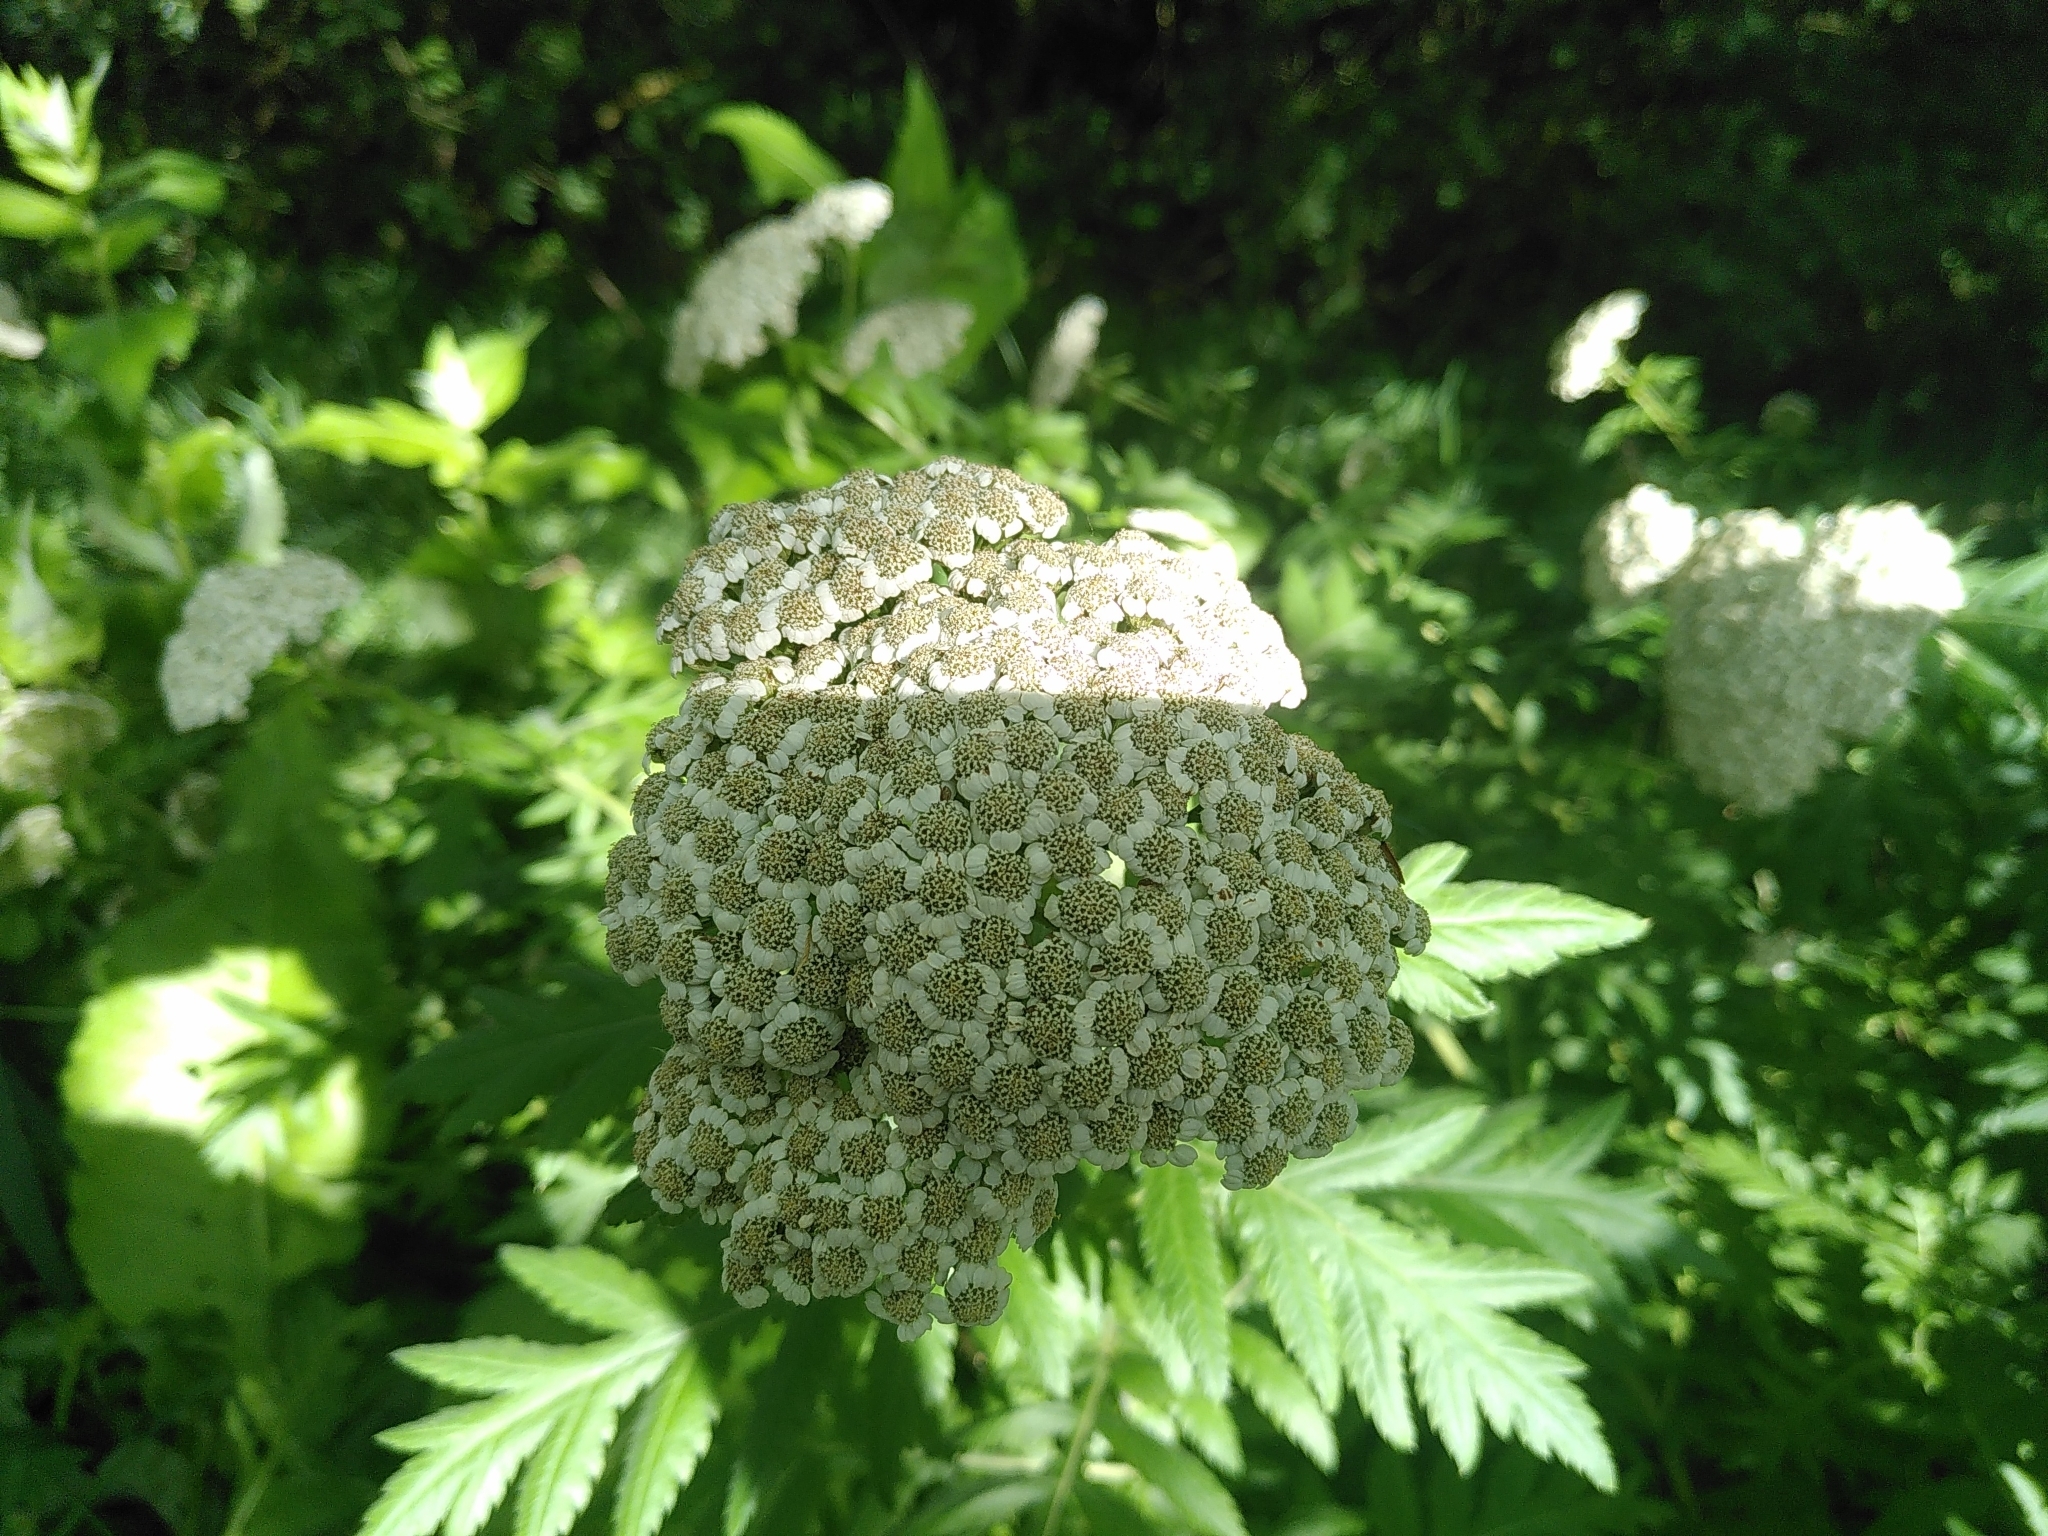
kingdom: Plantae
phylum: Tracheophyta
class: Magnoliopsida
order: Asterales
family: Asteraceae
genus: Tanacetum
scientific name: Tanacetum macrophyllum
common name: Rayed tansy
